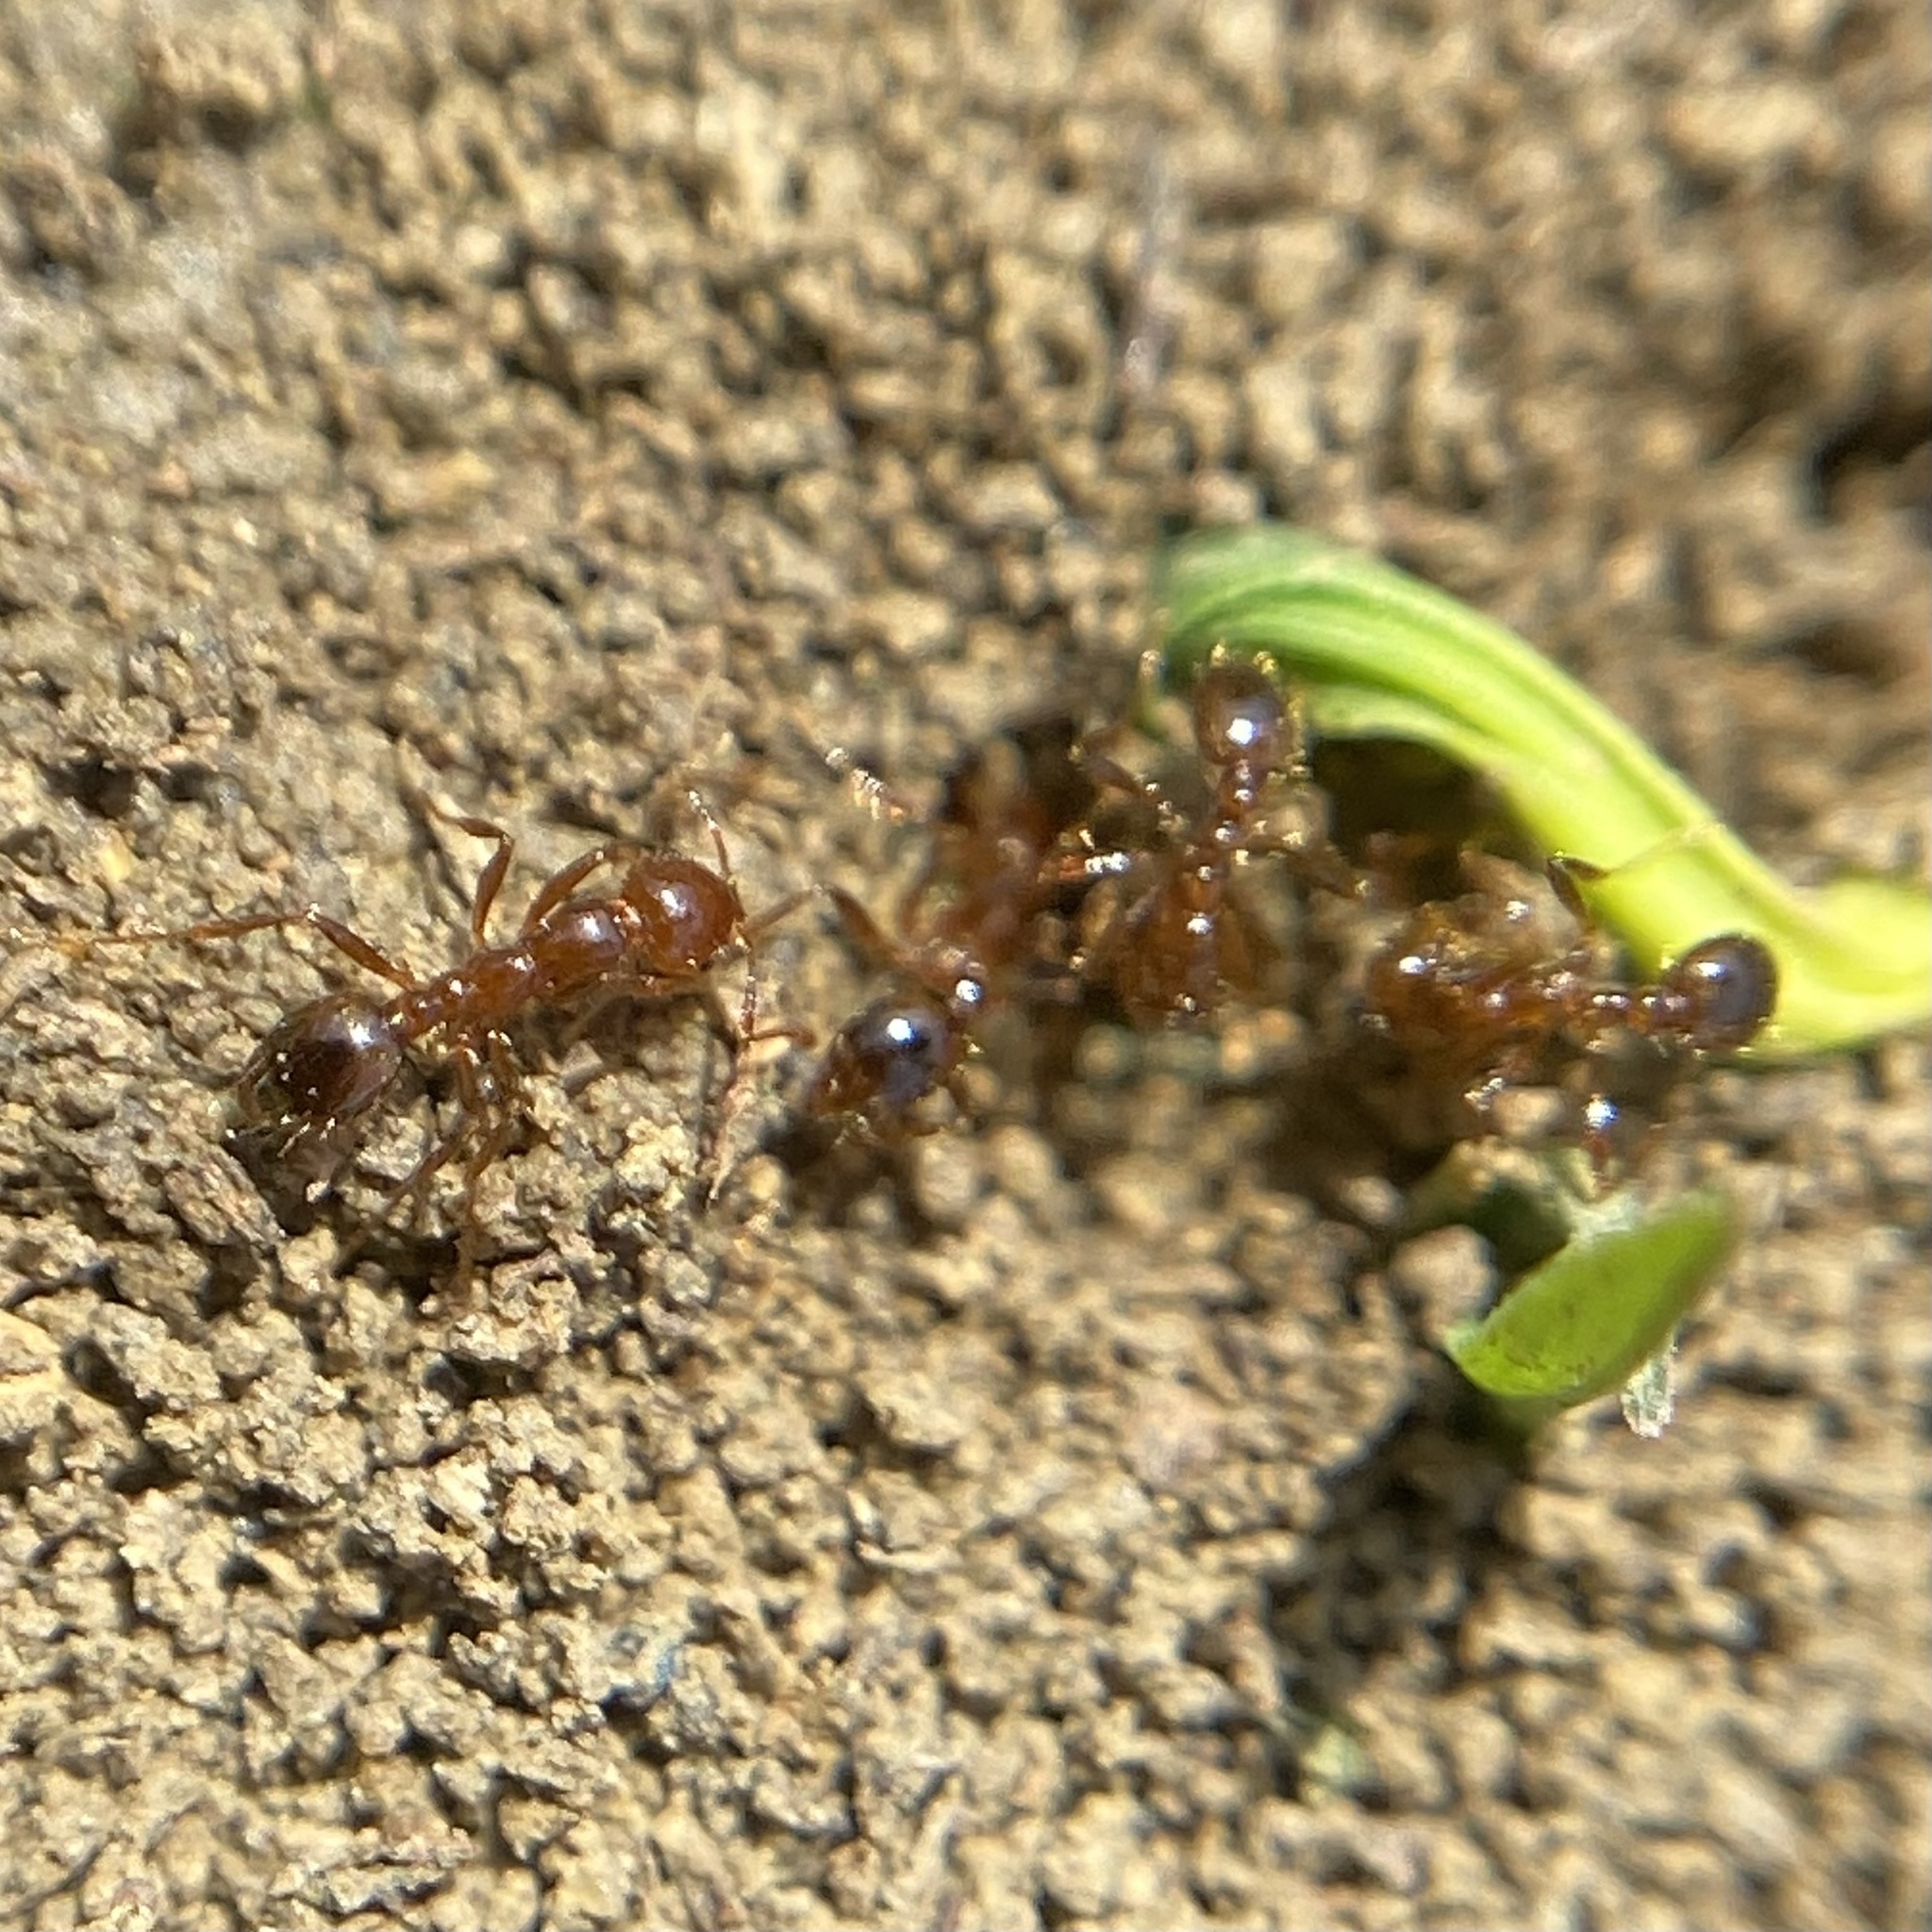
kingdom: Animalia
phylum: Arthropoda
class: Insecta
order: Hymenoptera
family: Formicidae
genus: Solenopsis
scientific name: Solenopsis invicta
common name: Red imported fire ant
